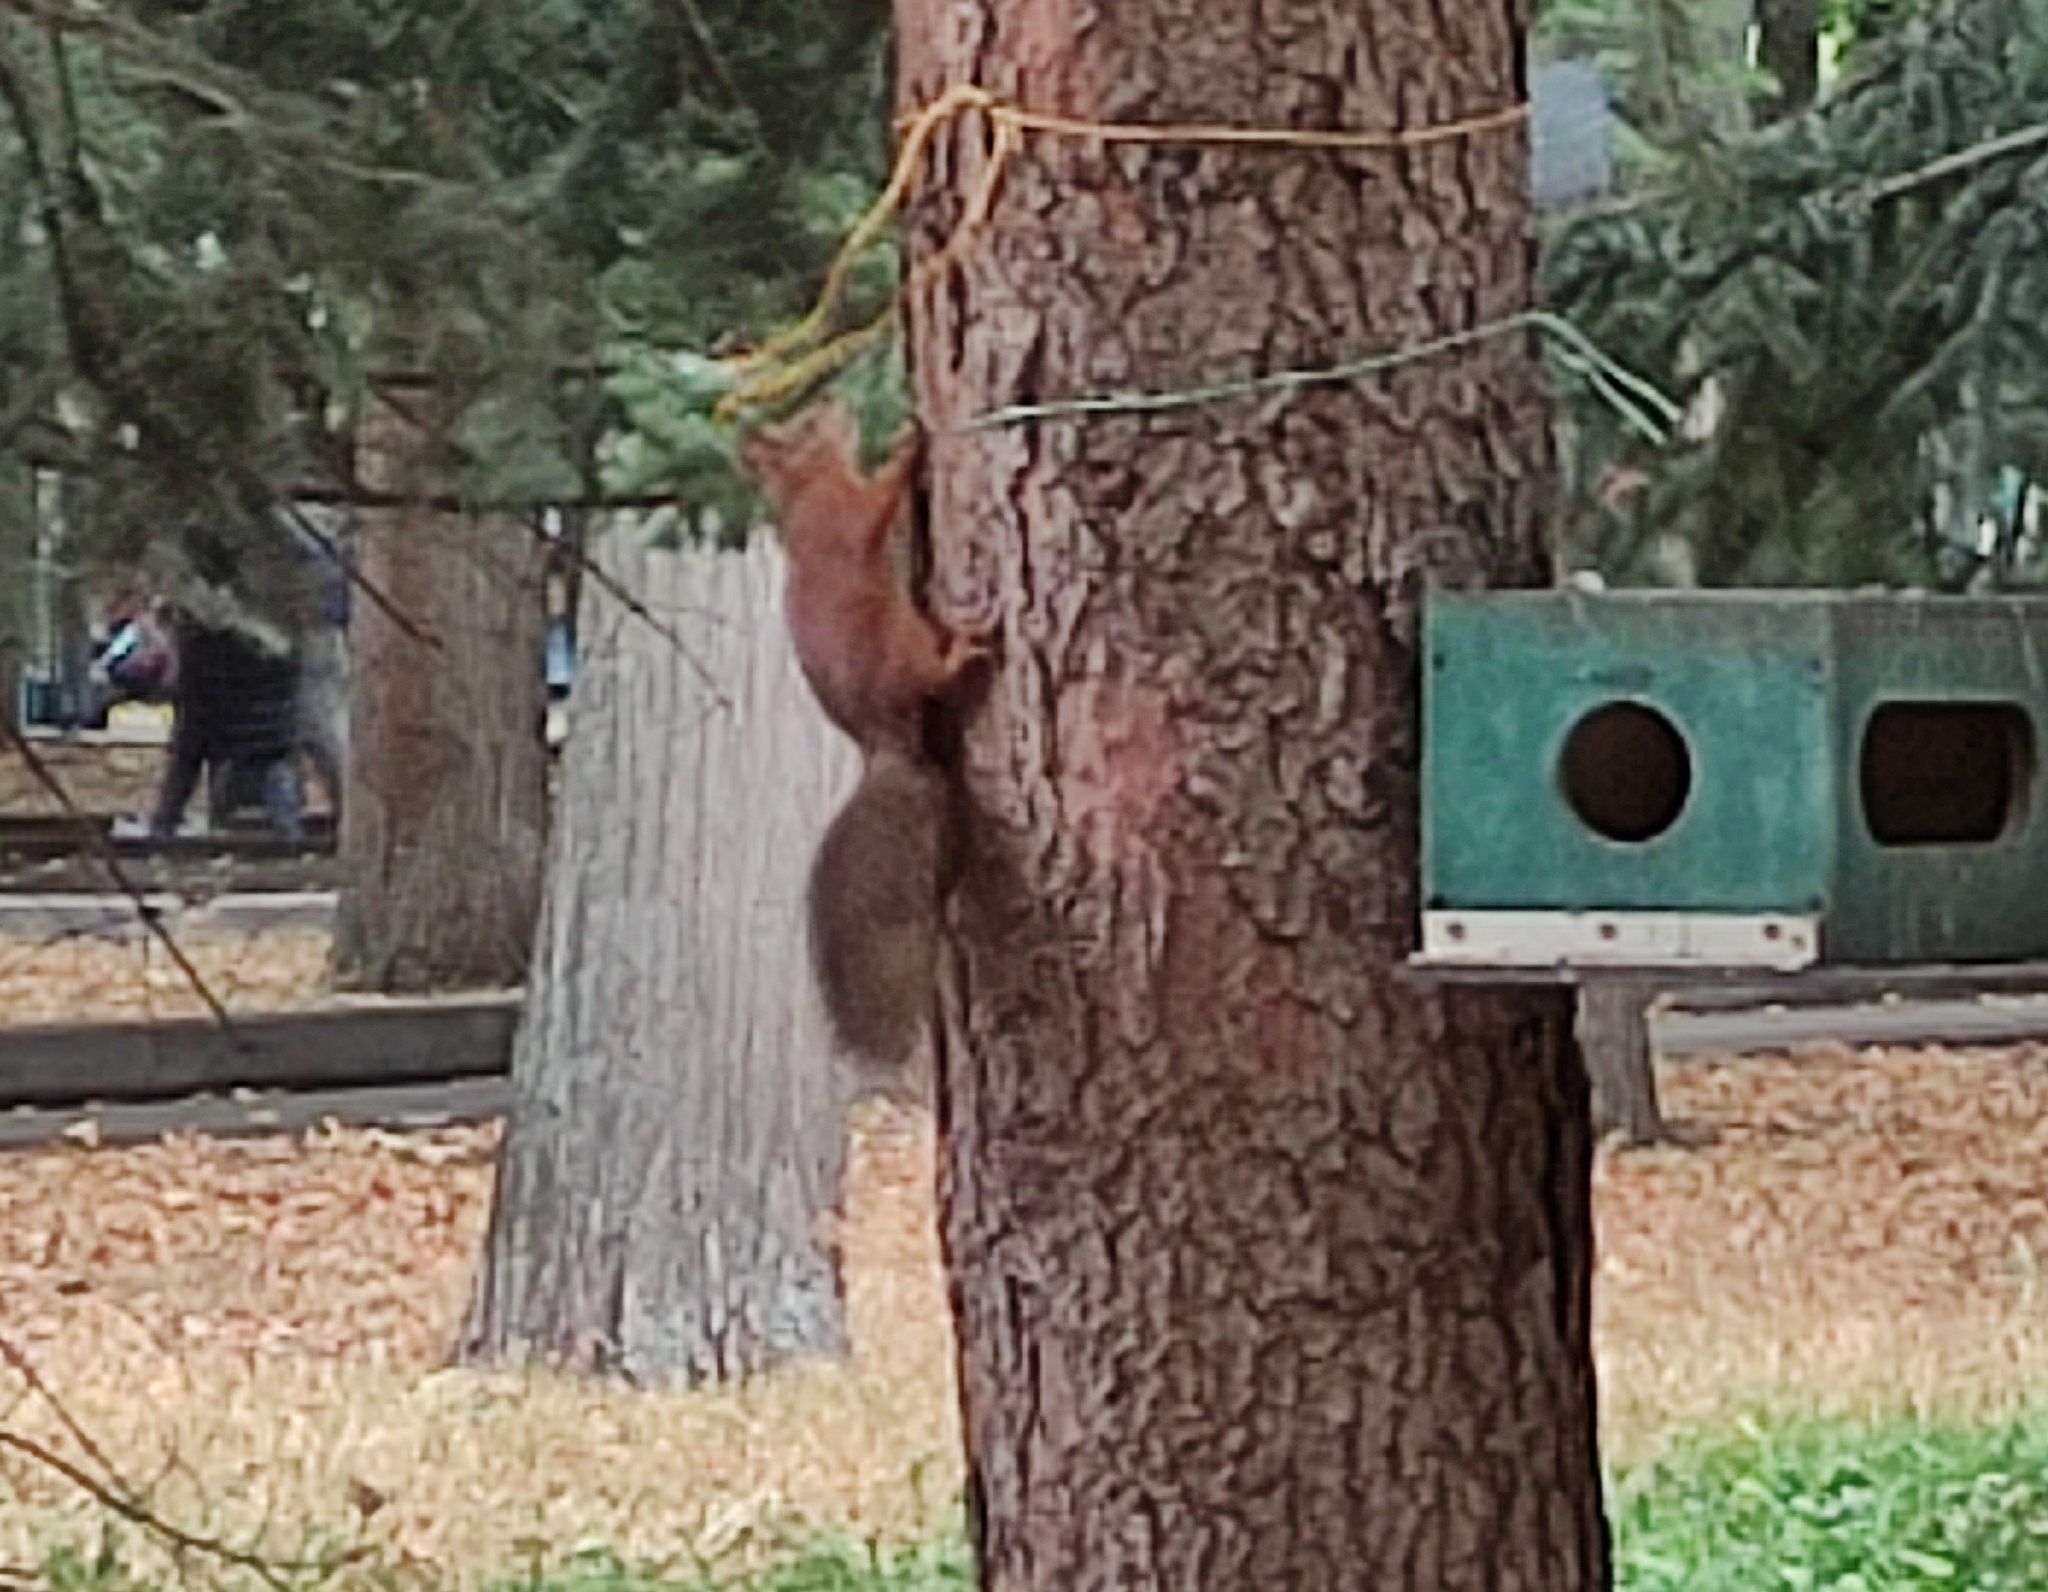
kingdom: Animalia
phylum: Chordata
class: Mammalia
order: Rodentia
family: Sciuridae
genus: Sciurus
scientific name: Sciurus vulgaris
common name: Eurasian red squirrel
